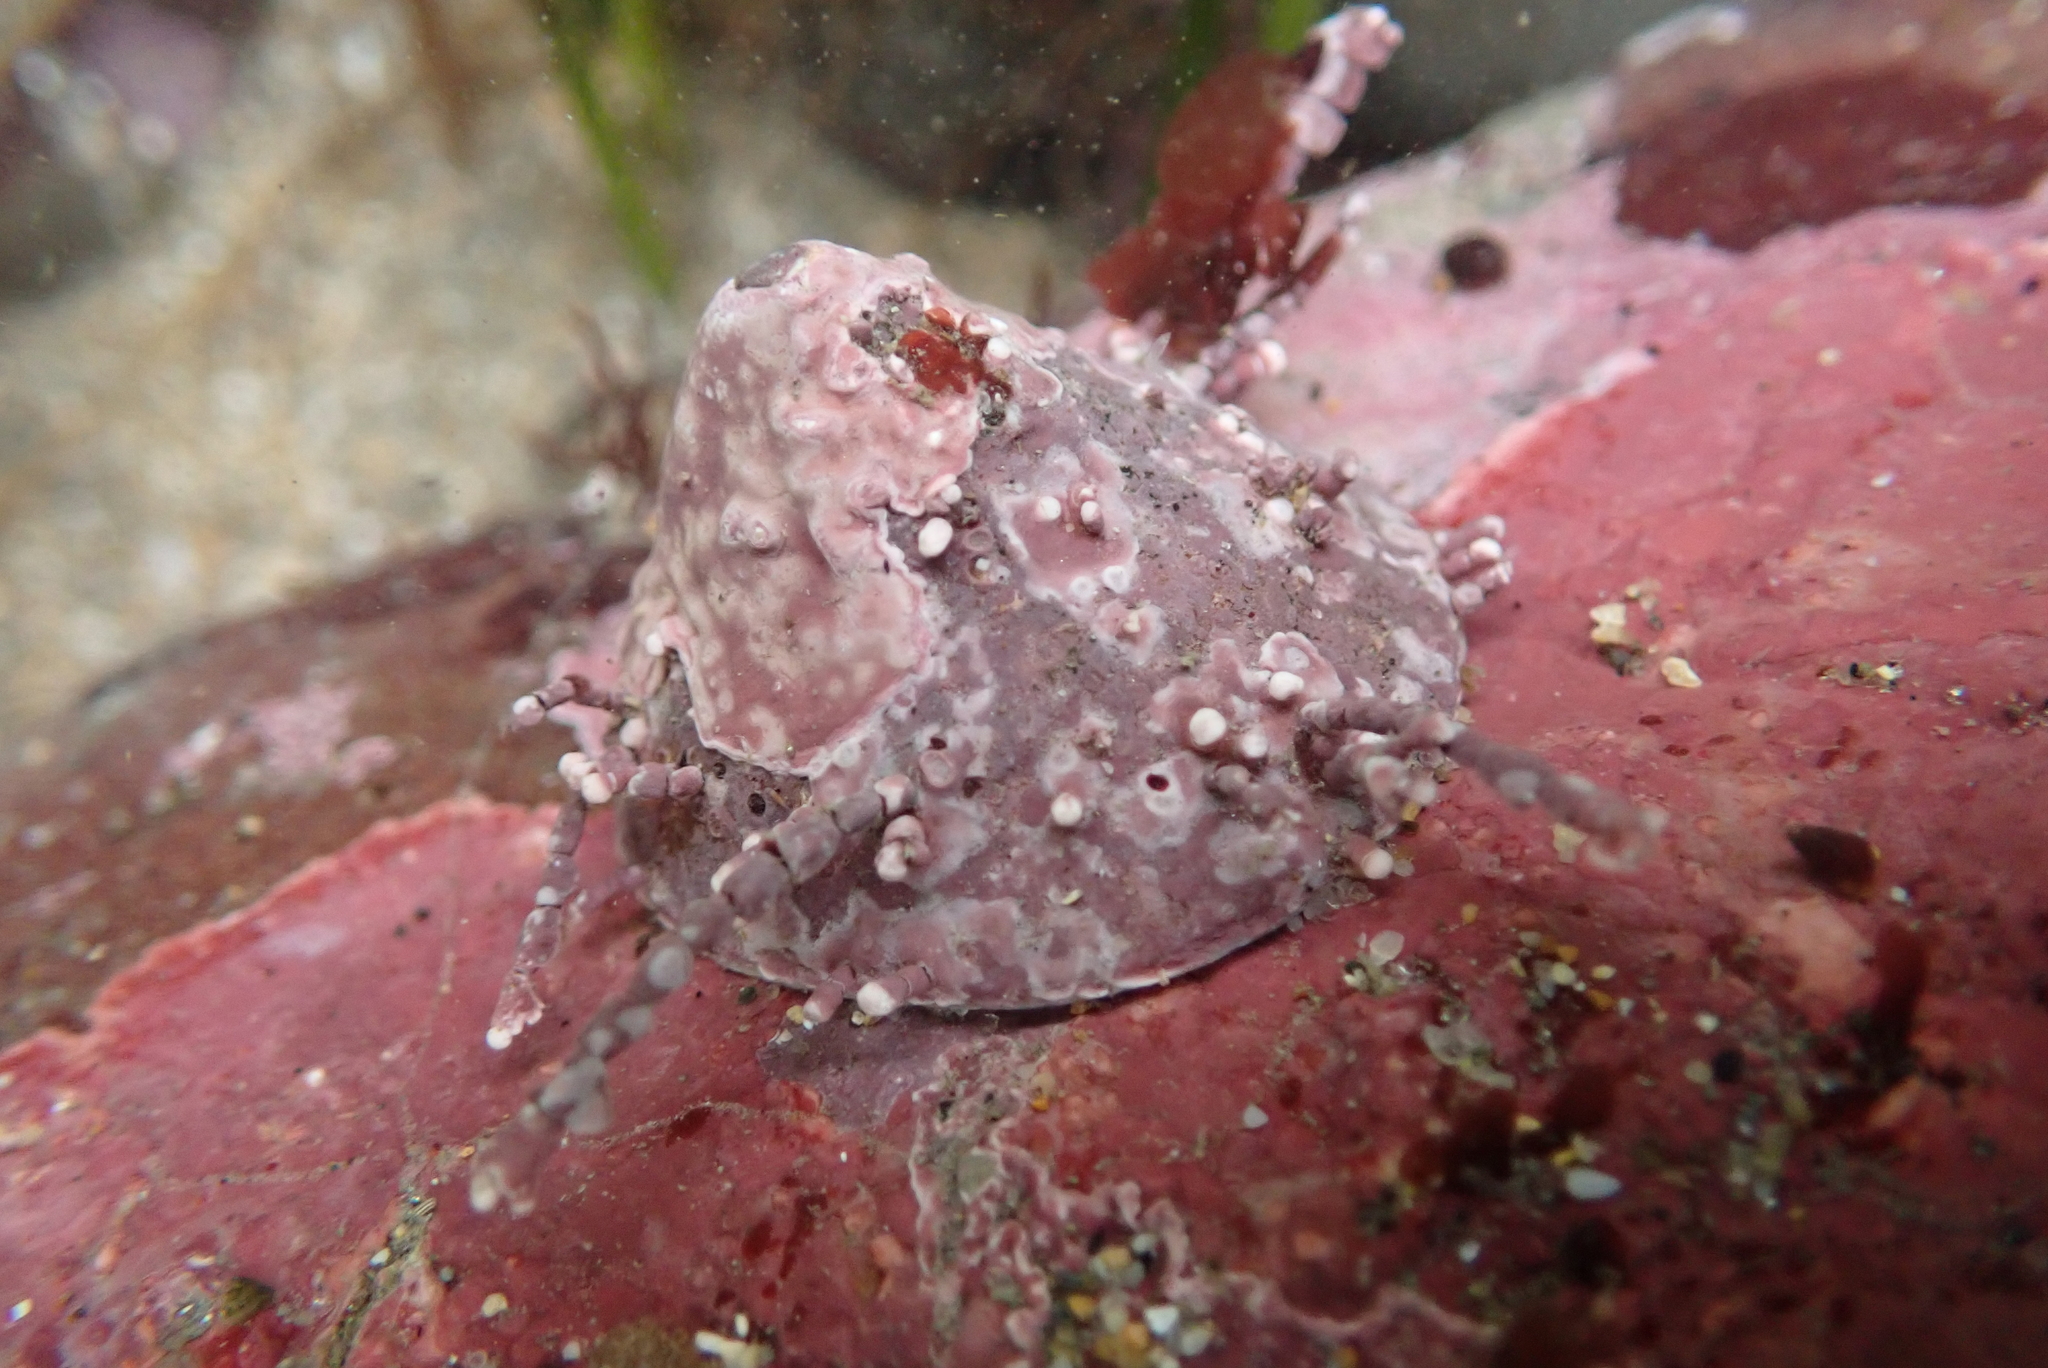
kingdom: Animalia
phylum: Mollusca
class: Gastropoda
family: Acmaeidae
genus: Acmaea
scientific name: Acmaea mitra
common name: Pacific white cap limpet
